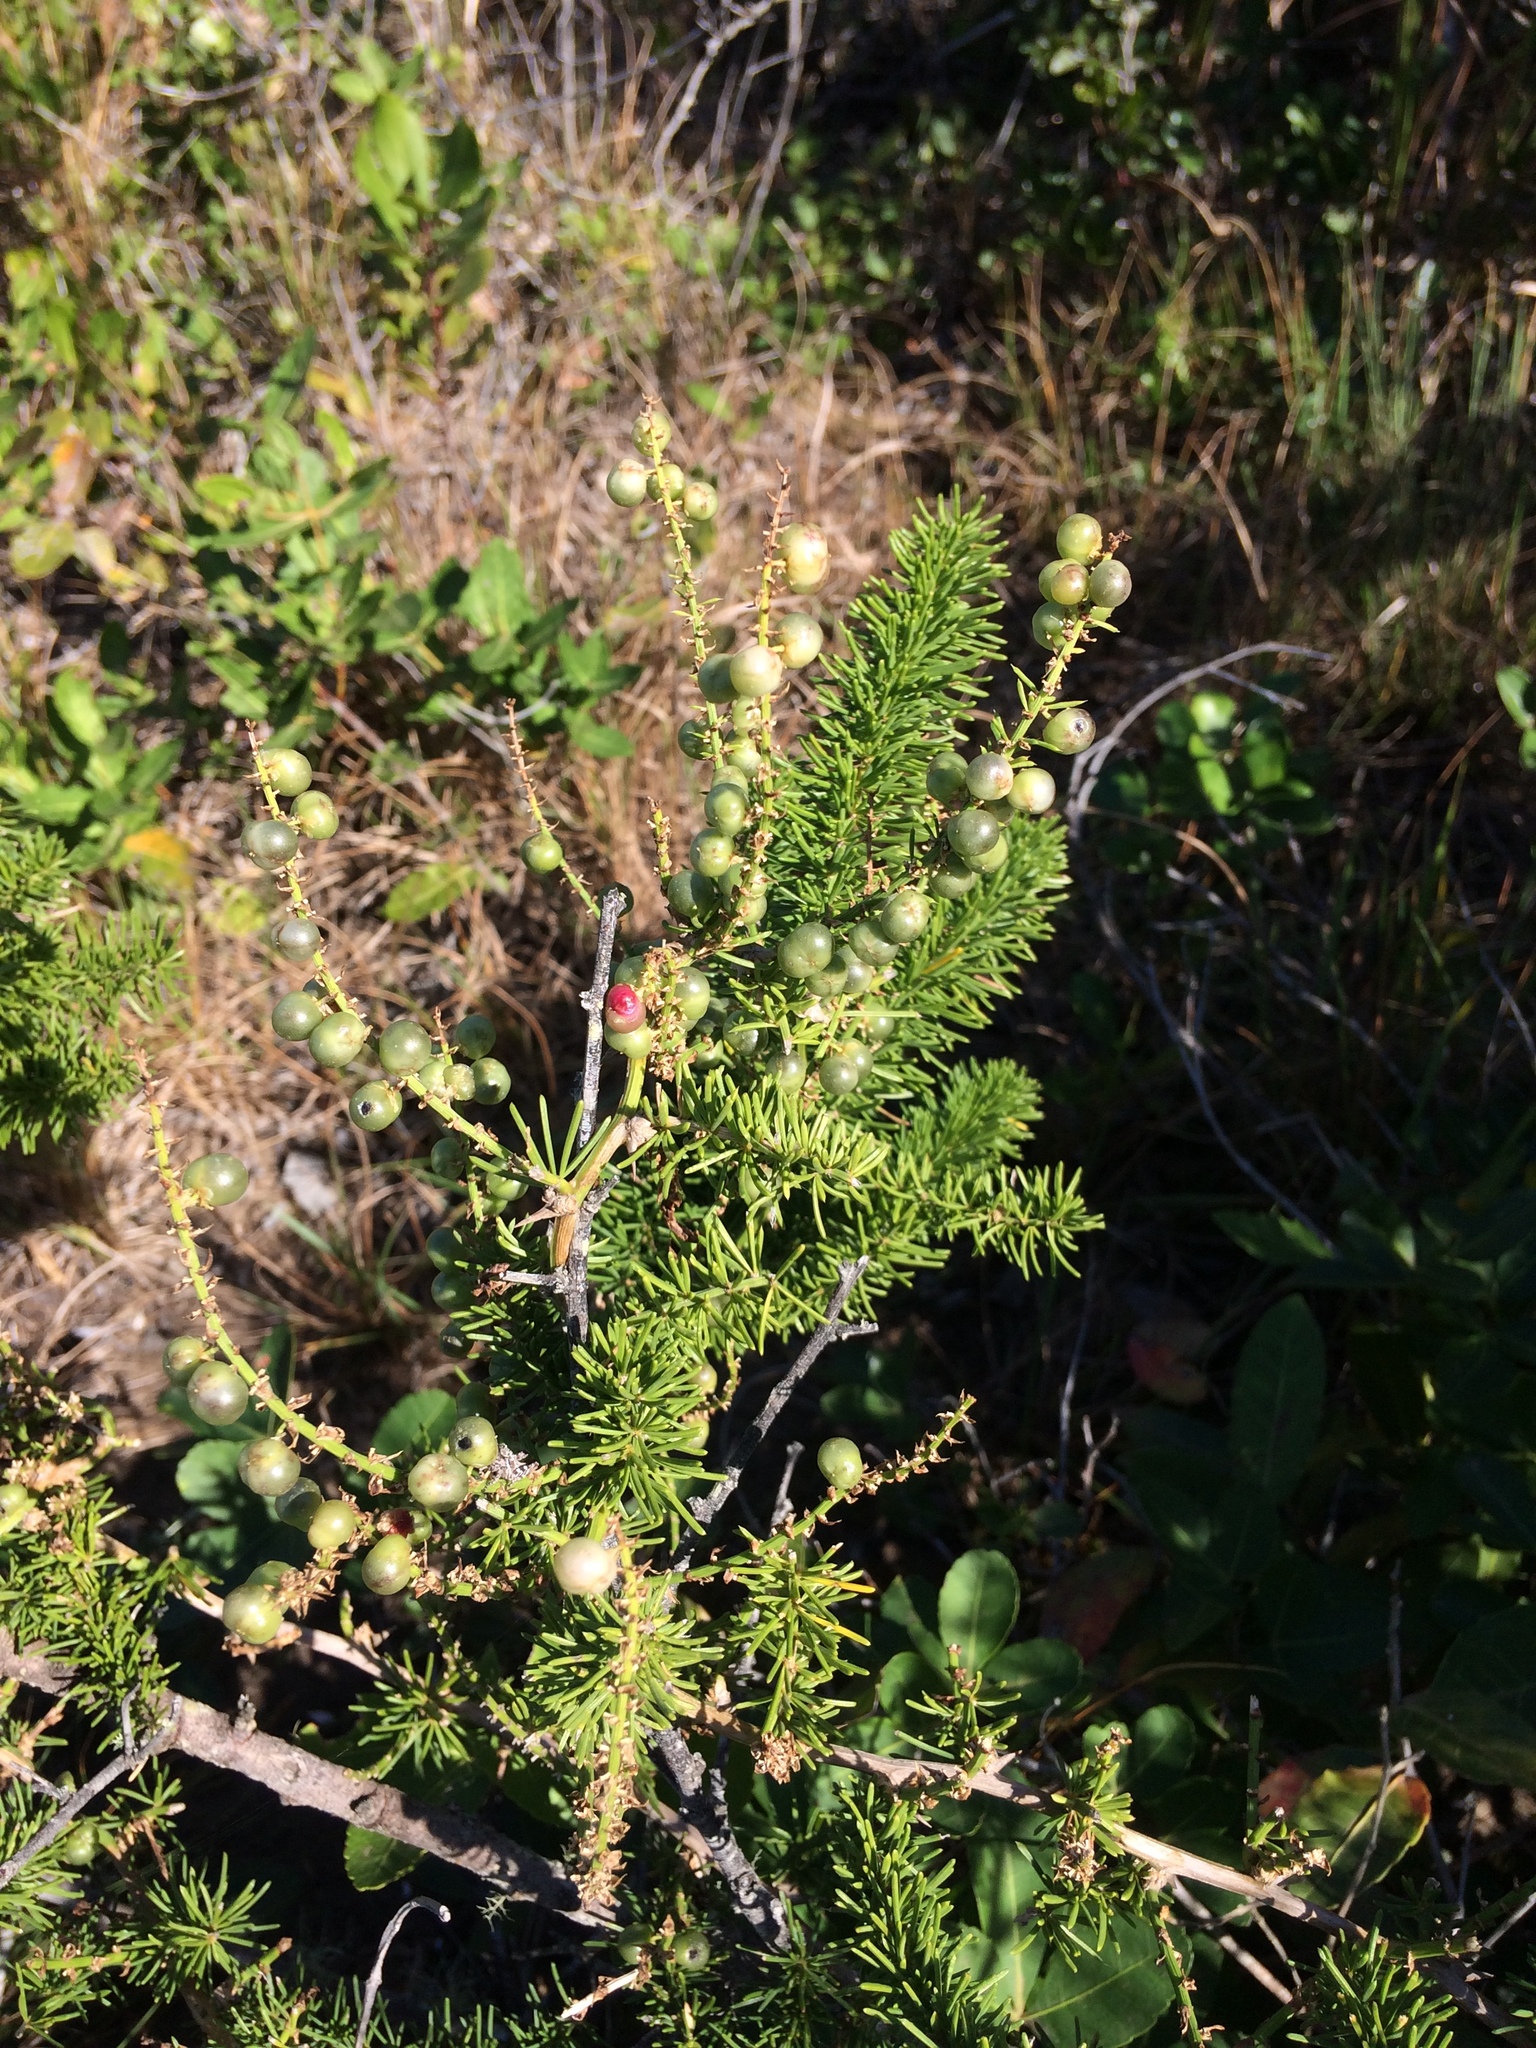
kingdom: Plantae
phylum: Tracheophyta
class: Liliopsida
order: Asparagales
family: Asparagaceae
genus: Asparagus
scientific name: Asparagus densiflorus
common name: Asparagus fern
